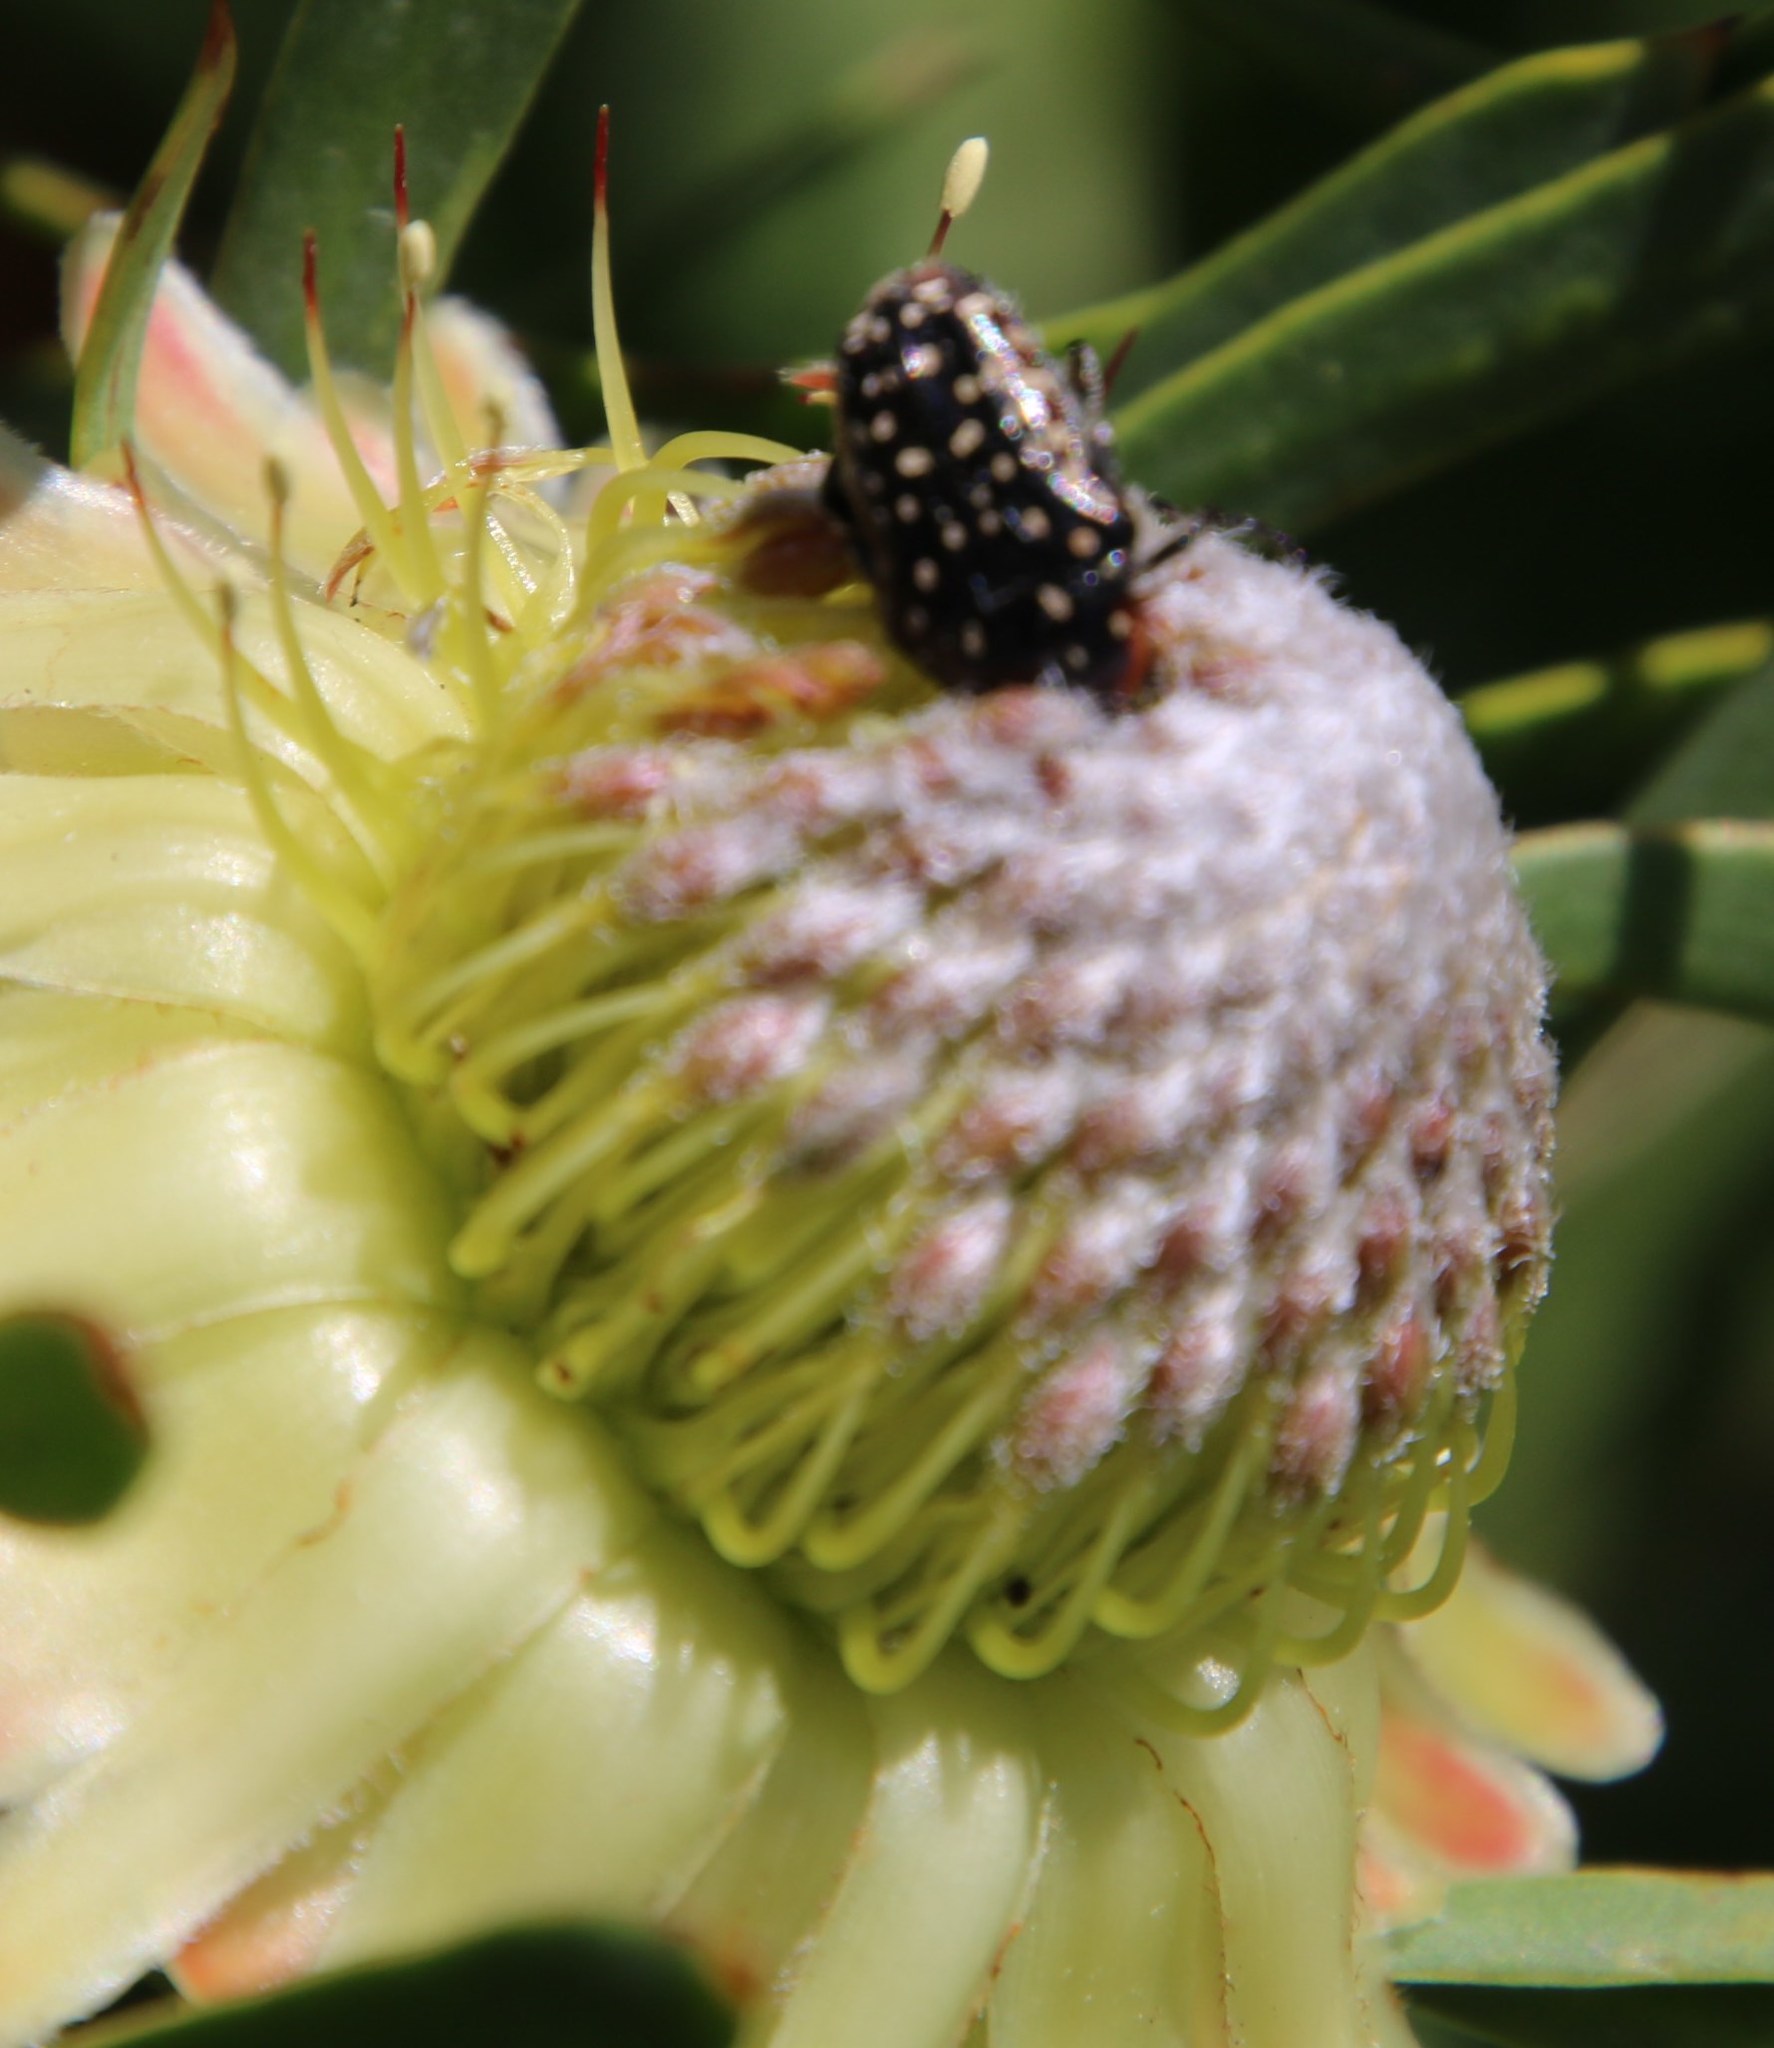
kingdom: Plantae
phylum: Tracheophyta
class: Magnoliopsida
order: Proteales
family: Proteaceae
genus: Protea
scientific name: Protea scolymocephala
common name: Thistle sugarbush
